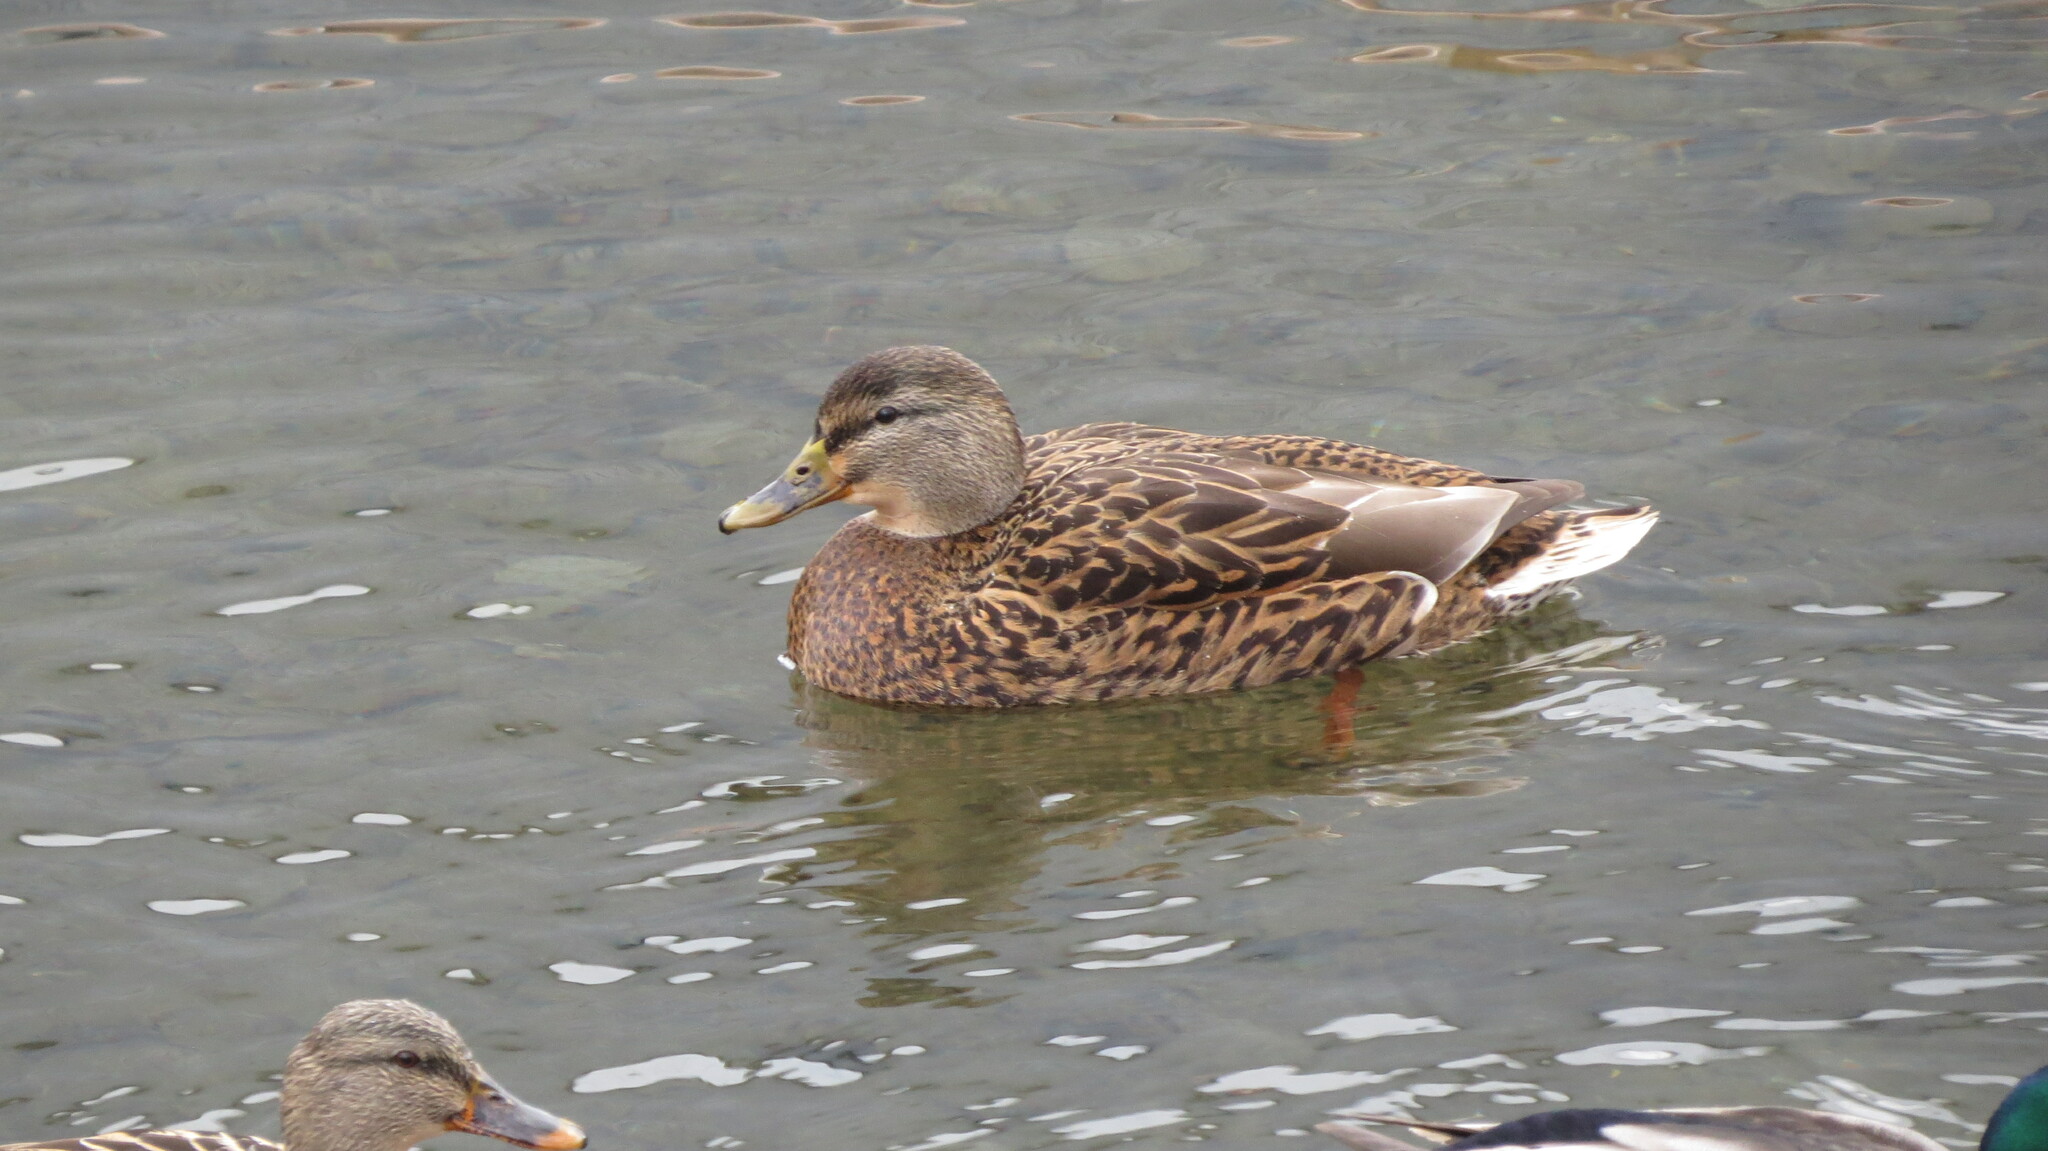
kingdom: Animalia
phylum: Chordata
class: Aves
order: Anseriformes
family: Anatidae
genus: Anas
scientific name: Anas platyrhynchos
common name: Mallard
